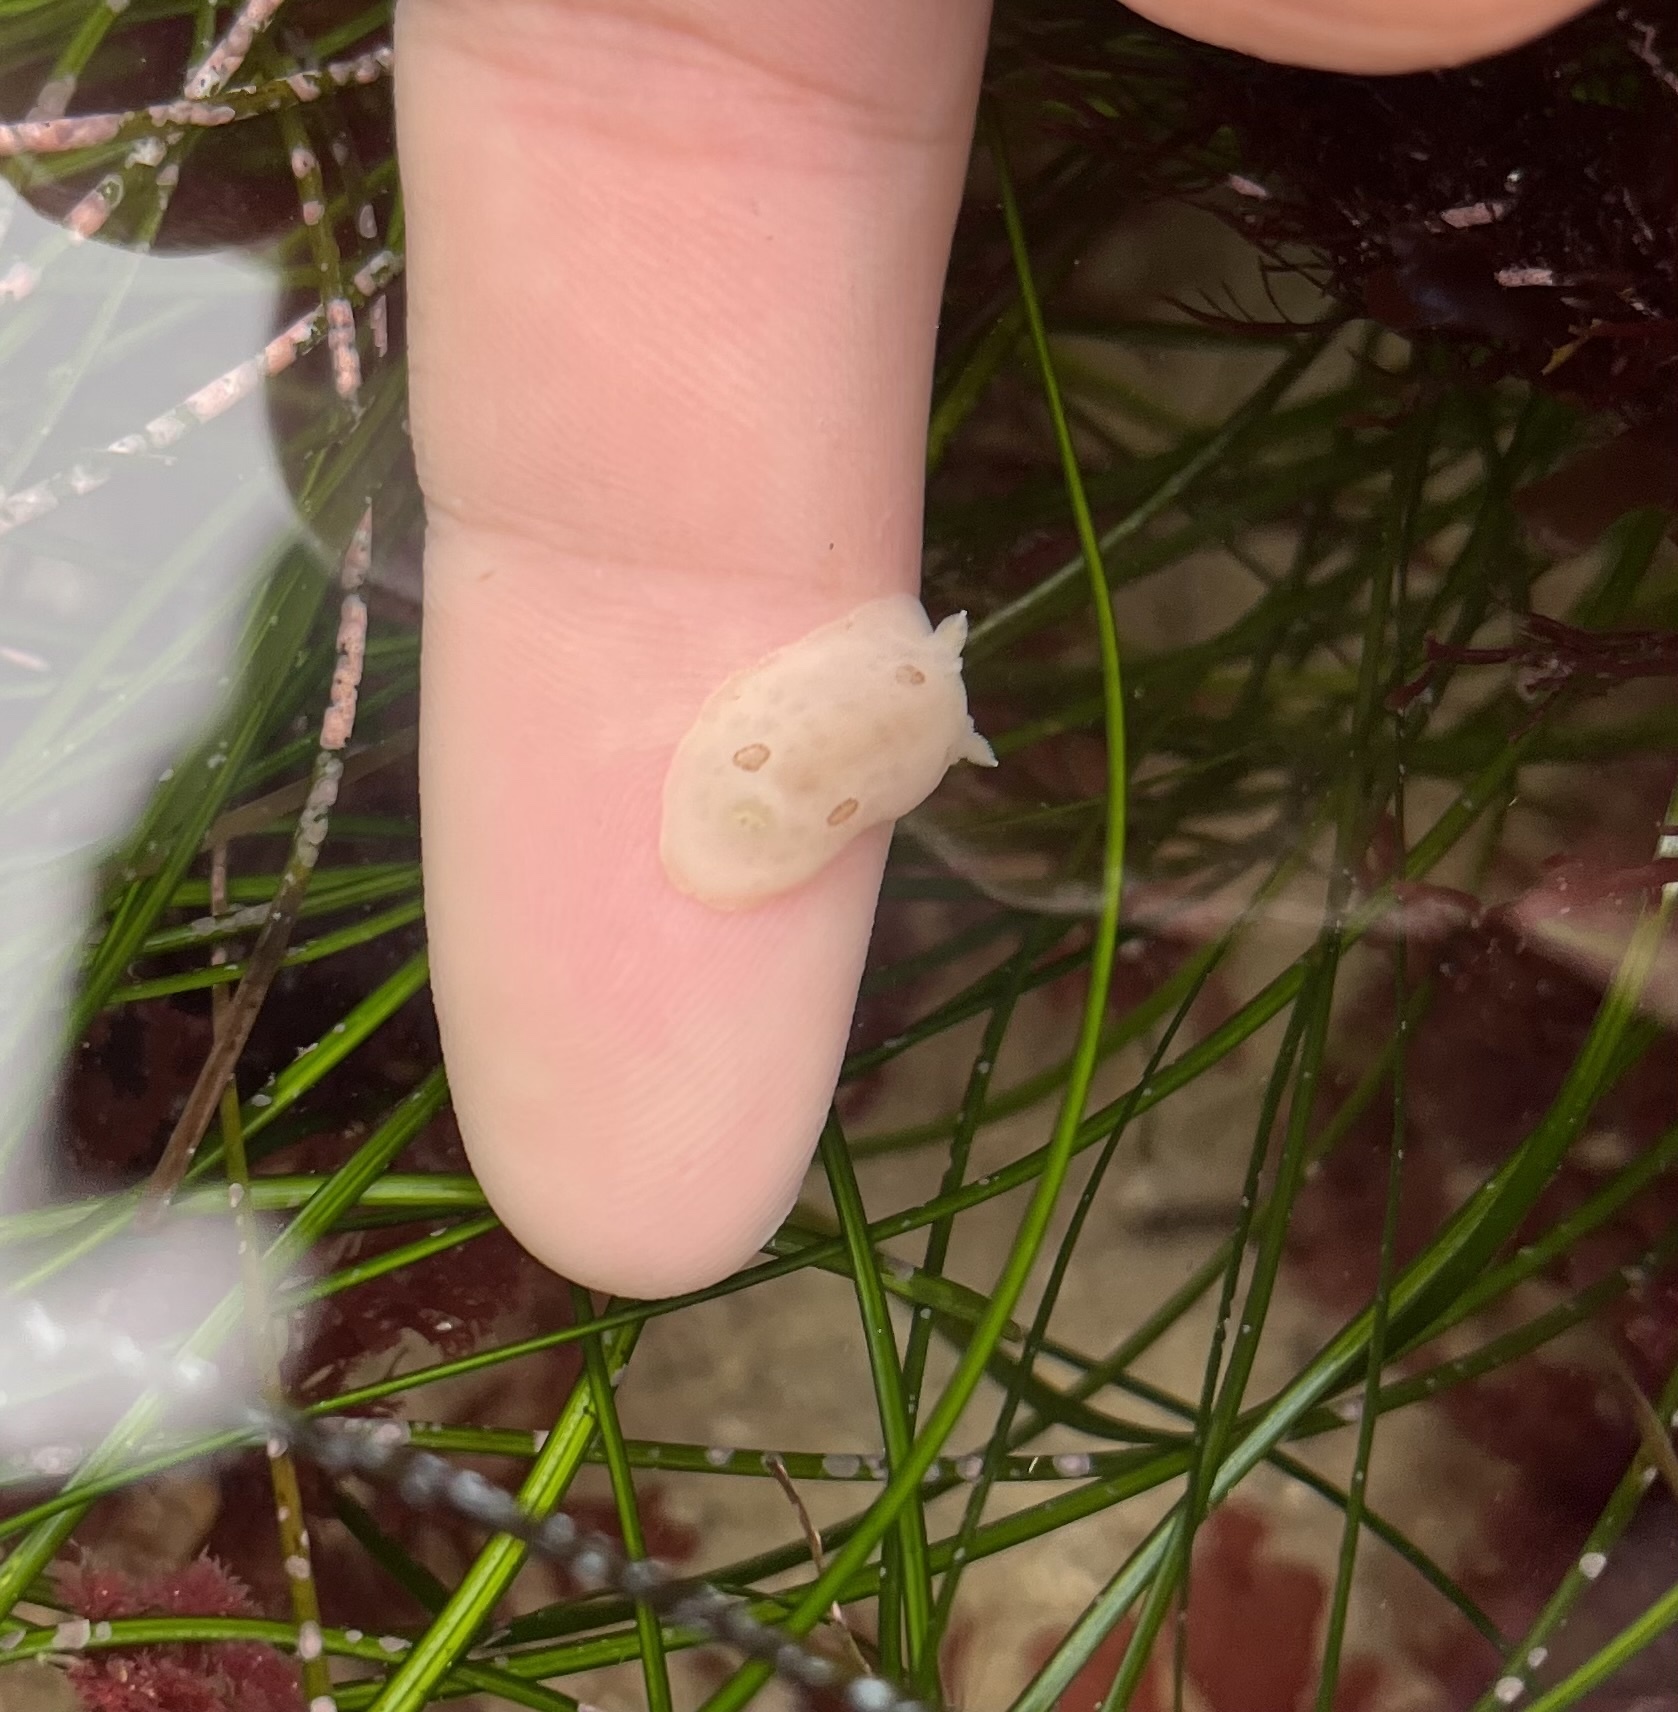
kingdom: Animalia
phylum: Mollusca
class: Gastropoda
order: Nudibranchia
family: Discodorididae
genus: Diaulula
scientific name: Diaulula sandiegensis
